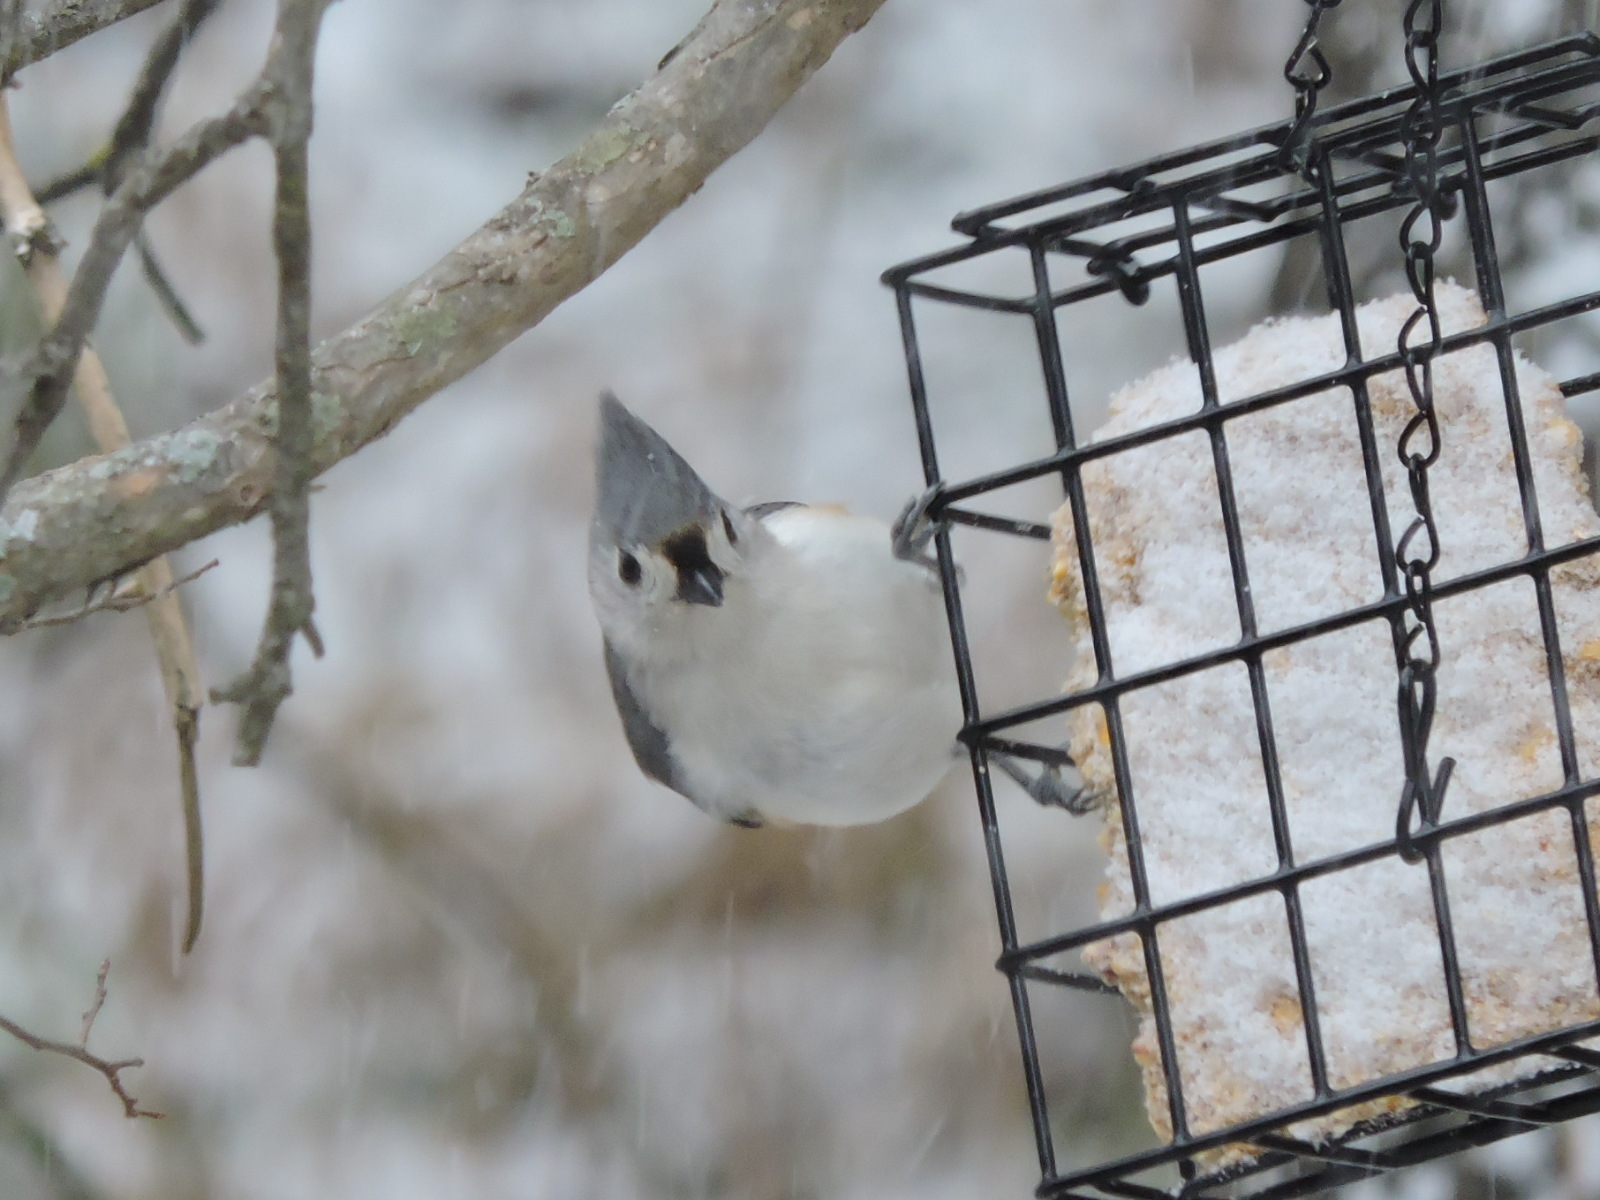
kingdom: Animalia
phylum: Chordata
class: Aves
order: Passeriformes
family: Paridae
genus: Baeolophus
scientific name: Baeolophus bicolor
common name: Tufted titmouse
